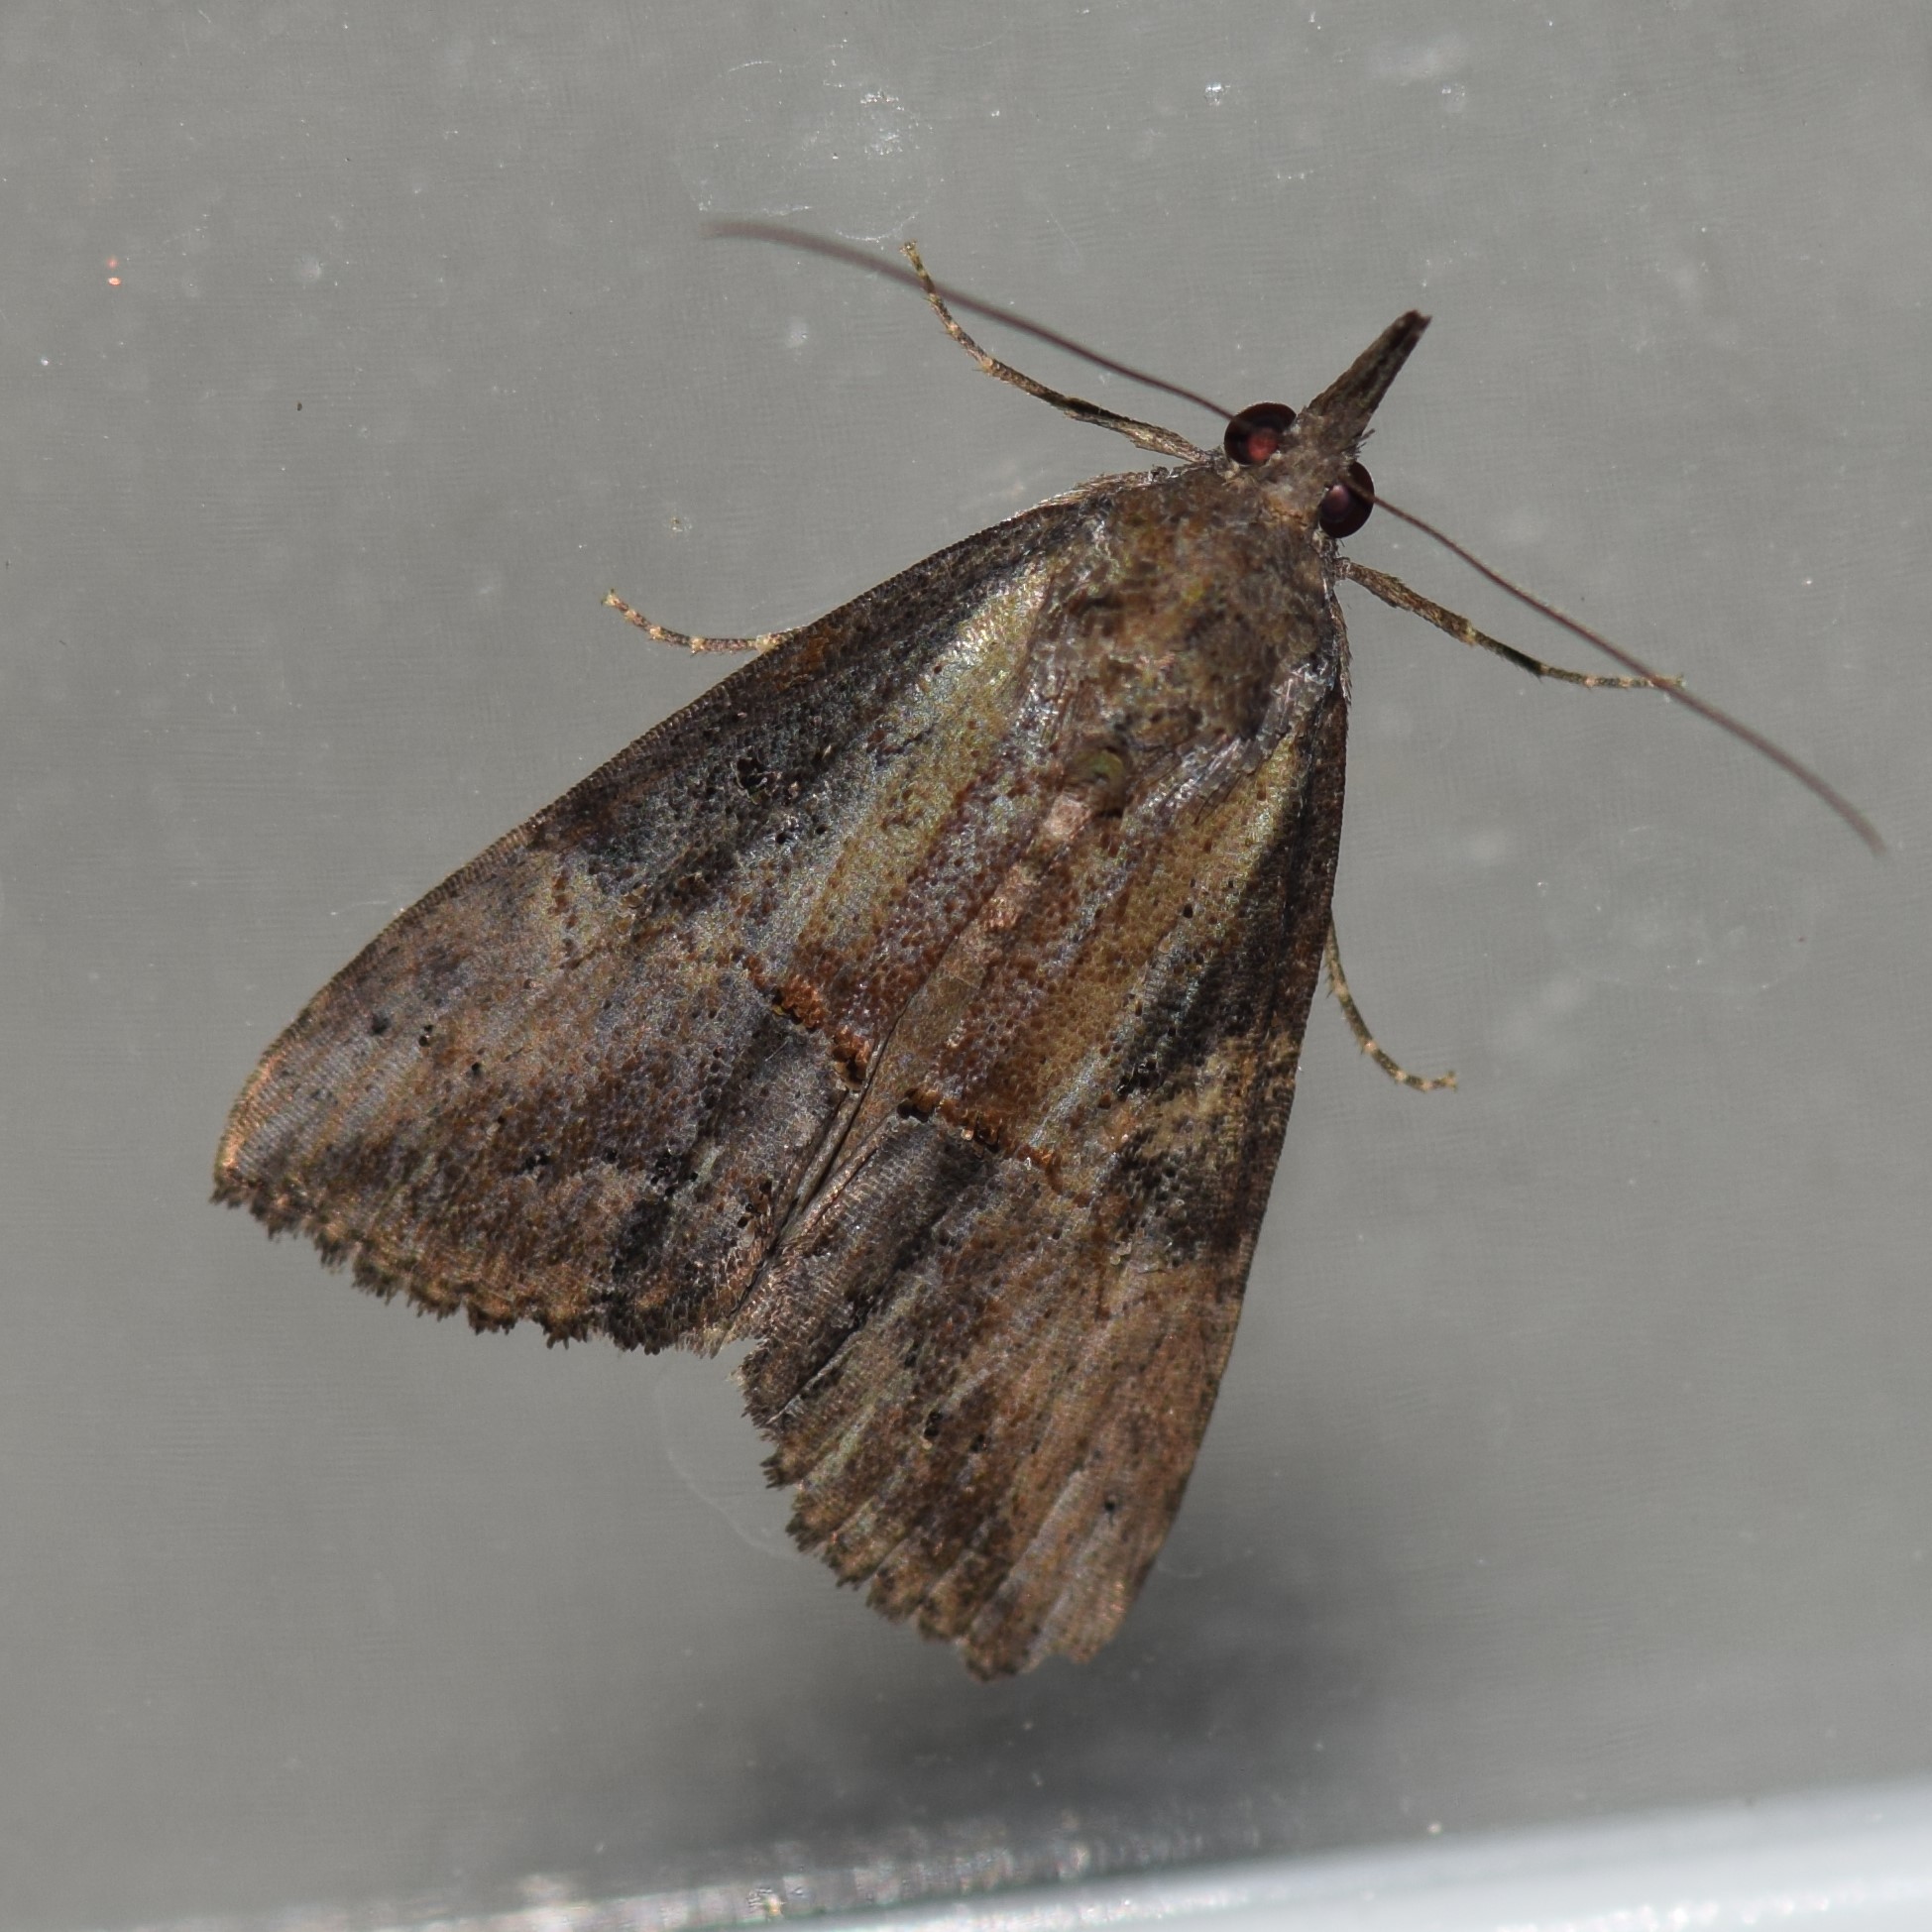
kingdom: Animalia
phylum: Arthropoda
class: Insecta
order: Lepidoptera
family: Erebidae
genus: Hypena
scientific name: Hypena scabra
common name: Green cloverworm
